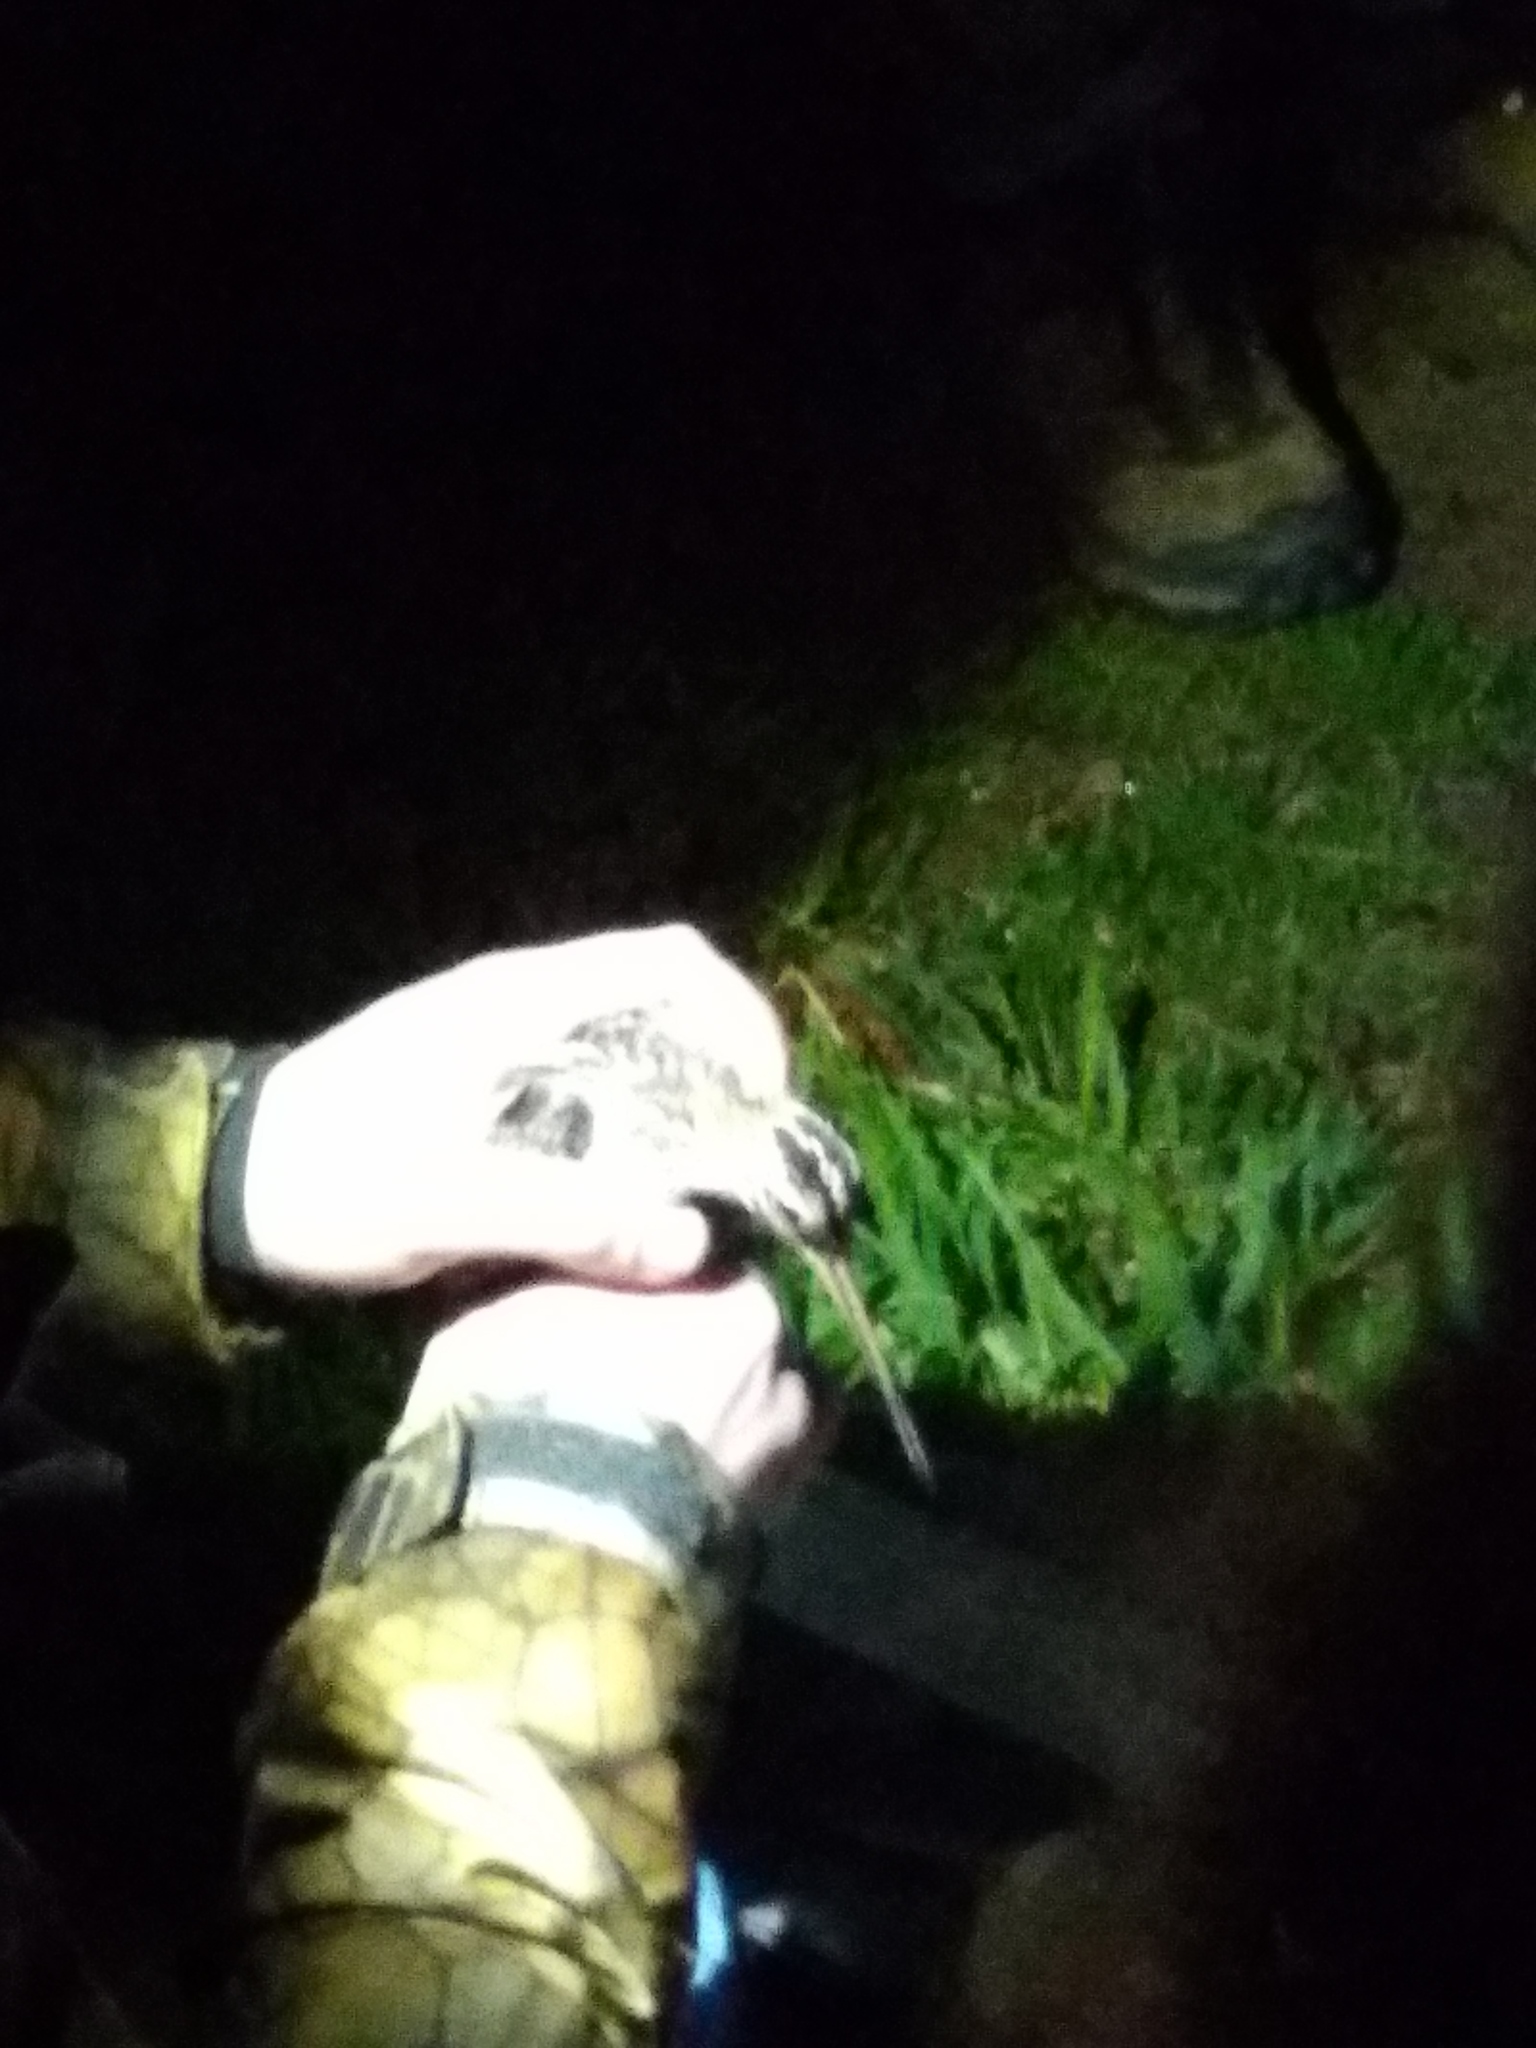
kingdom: Animalia
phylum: Chordata
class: Aves
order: Charadriiformes
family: Scolopacidae
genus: Gallinago
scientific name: Gallinago gallinago
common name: Common snipe
